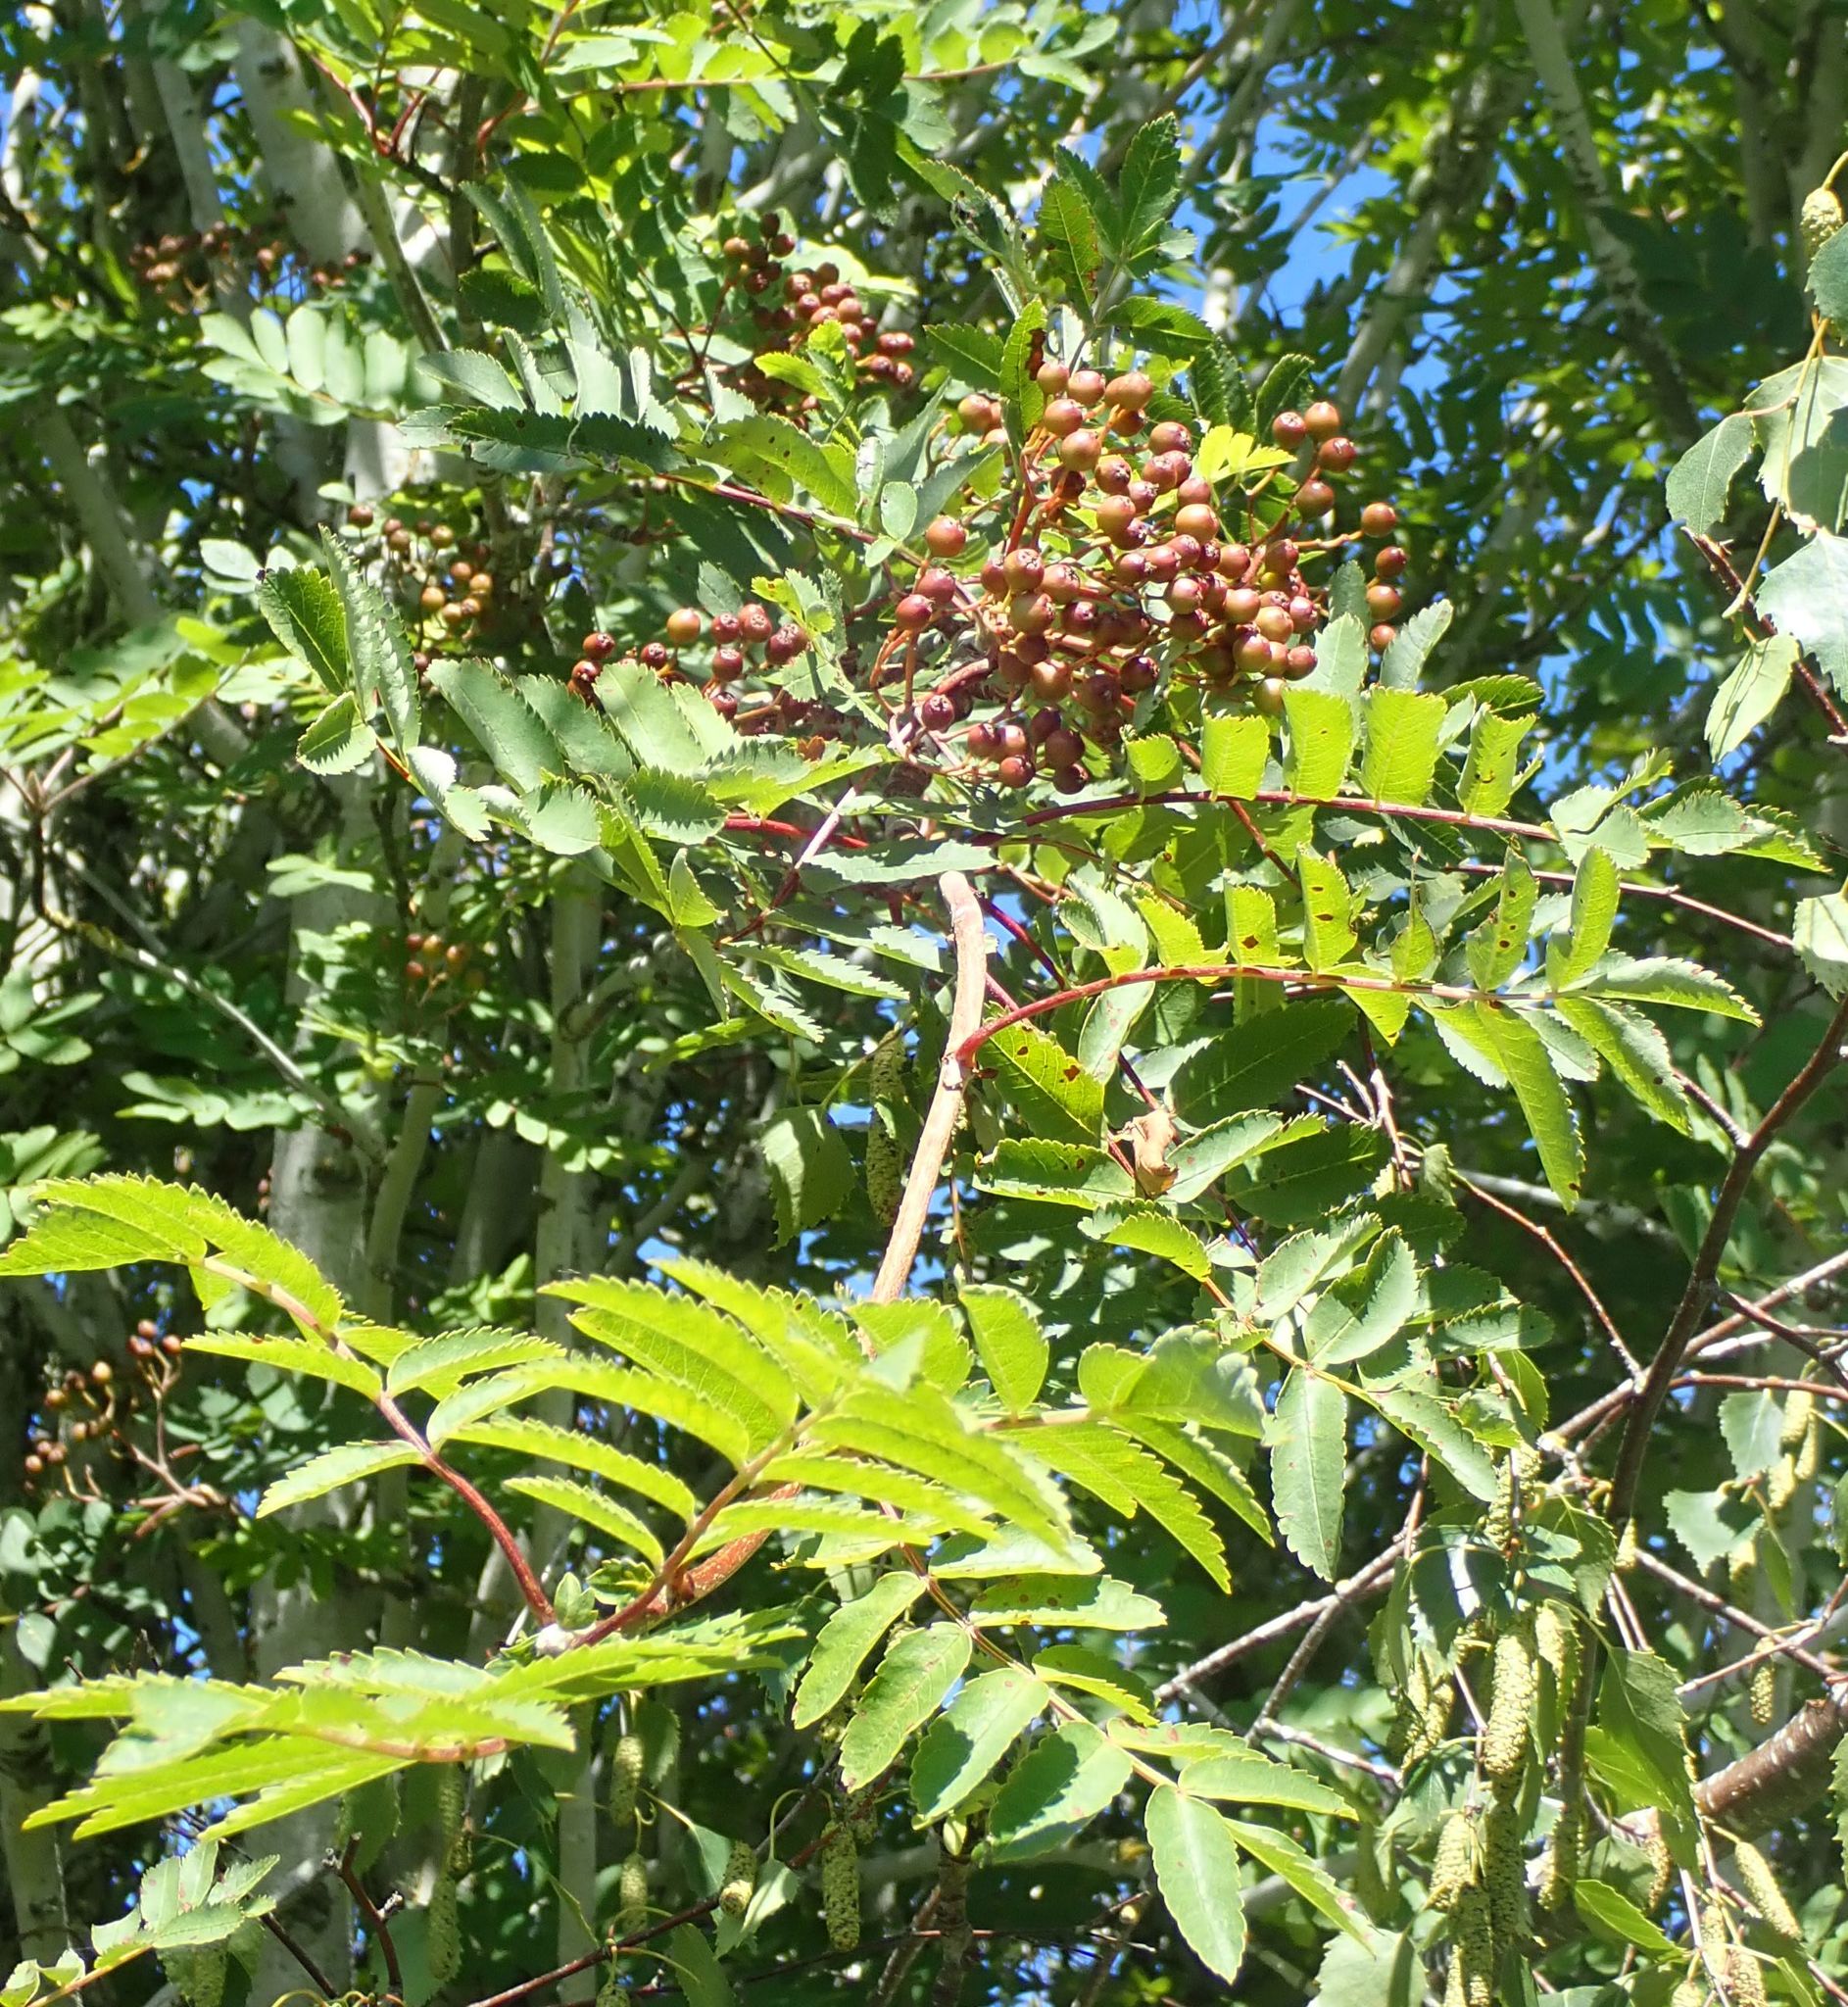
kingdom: Plantae
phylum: Tracheophyta
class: Magnoliopsida
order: Rosales
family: Rosaceae
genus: Sorbus
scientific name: Sorbus aucuparia
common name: Rowan
